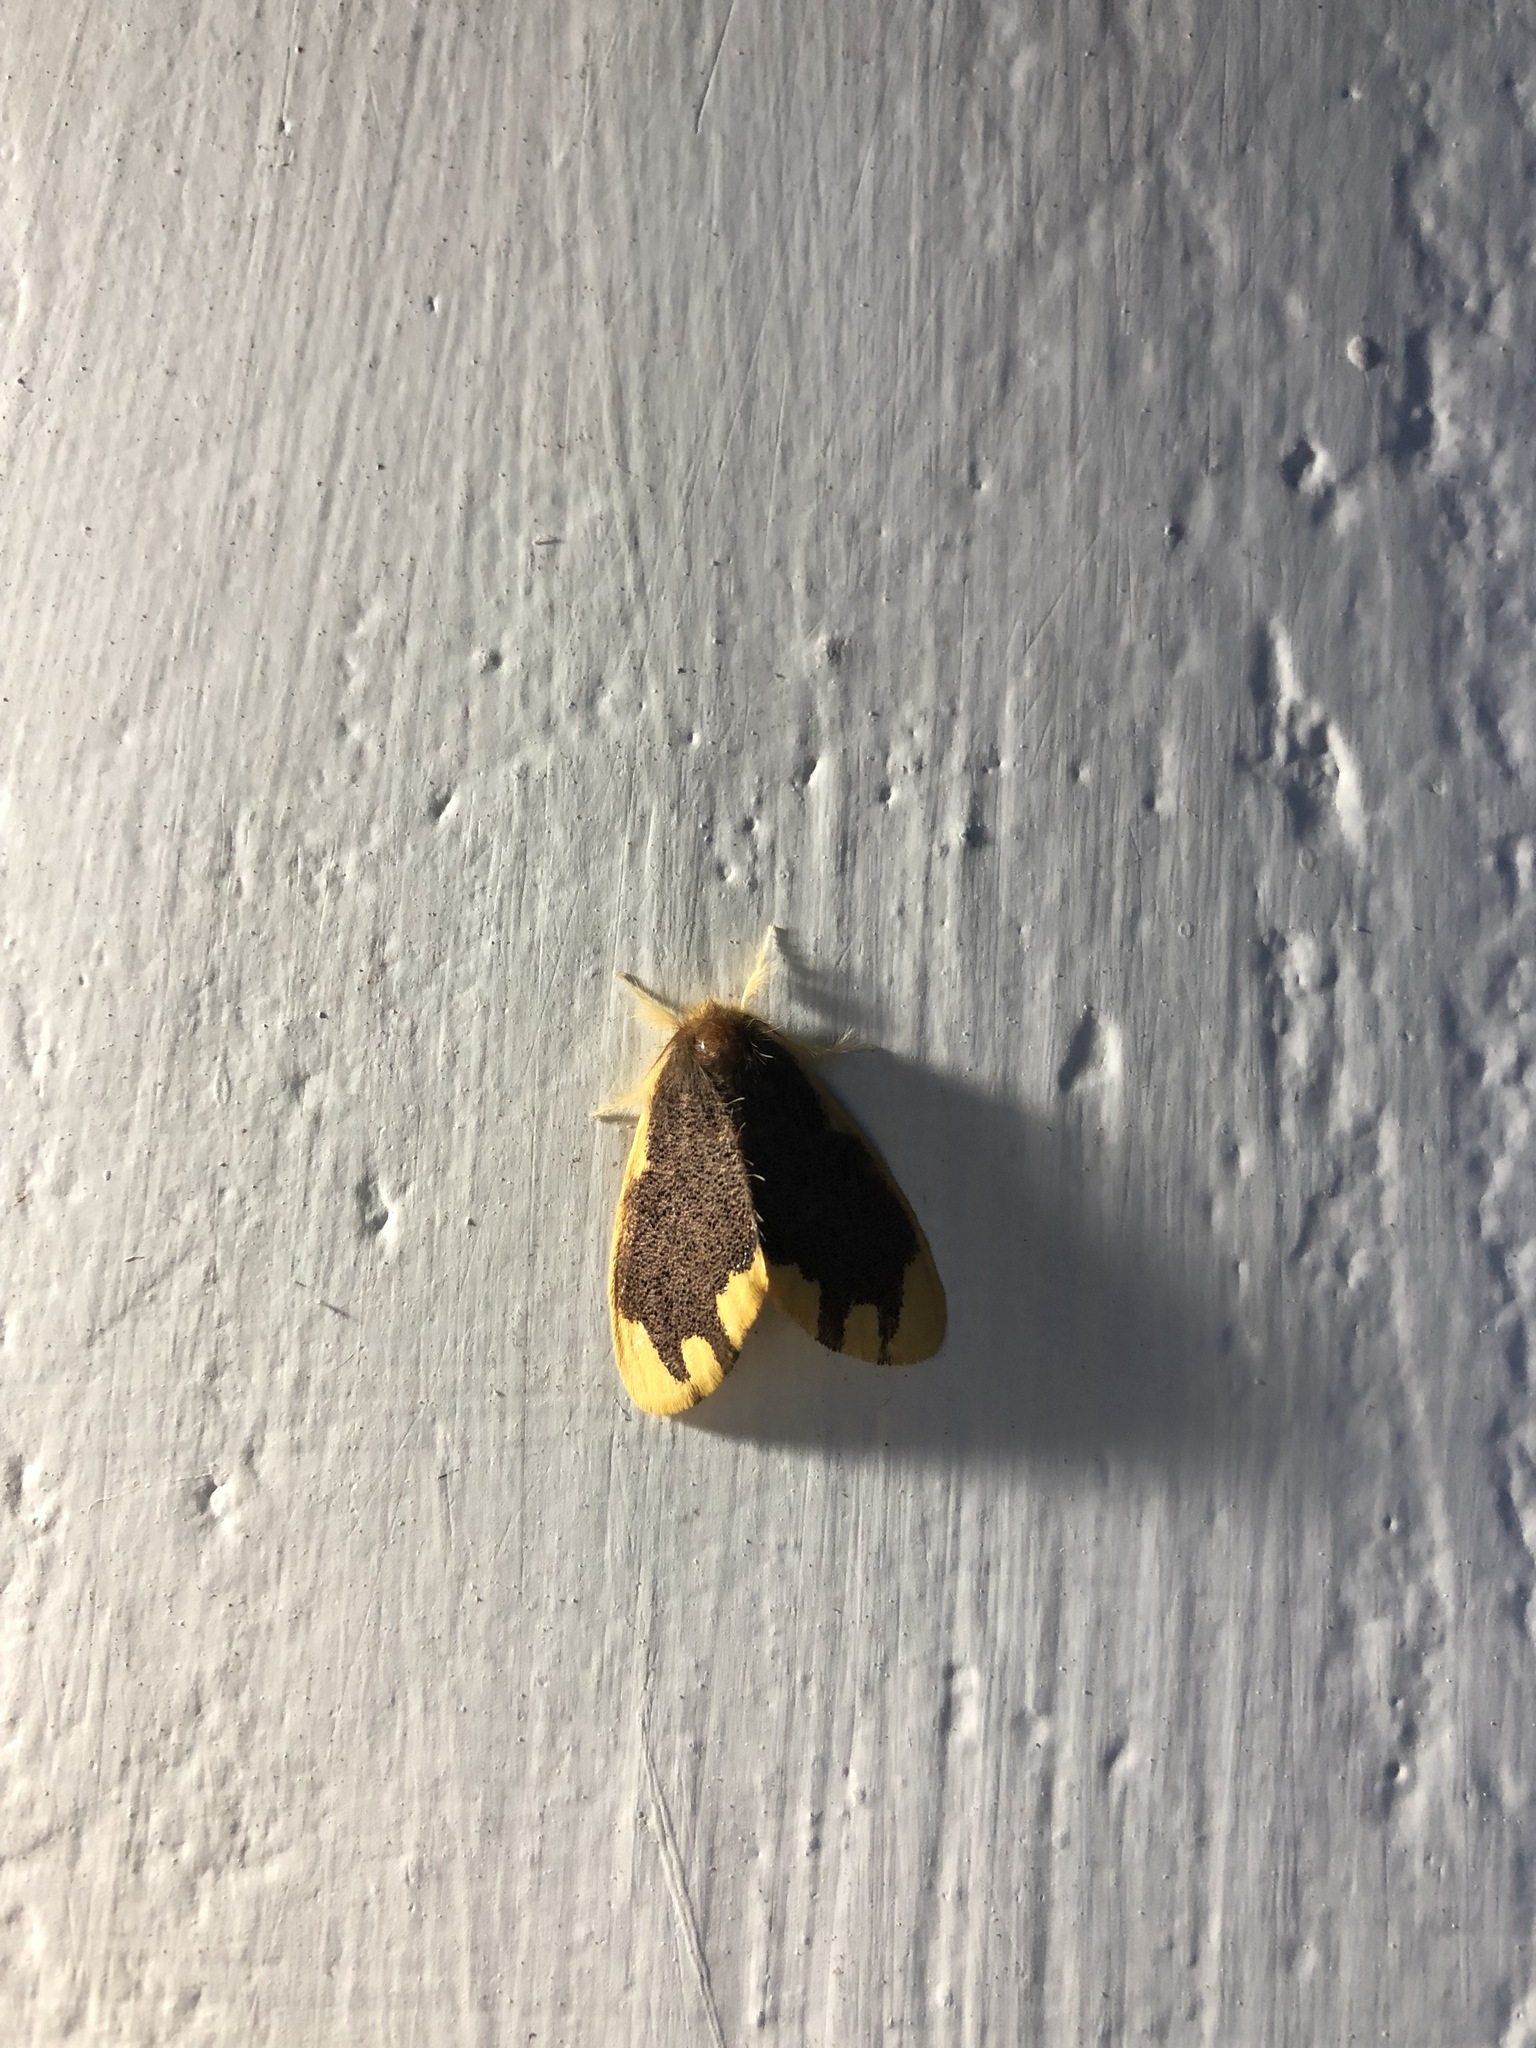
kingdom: Animalia
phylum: Arthropoda
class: Insecta
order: Lepidoptera
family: Erebidae
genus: Orvasca
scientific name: Orvasca subnotata
